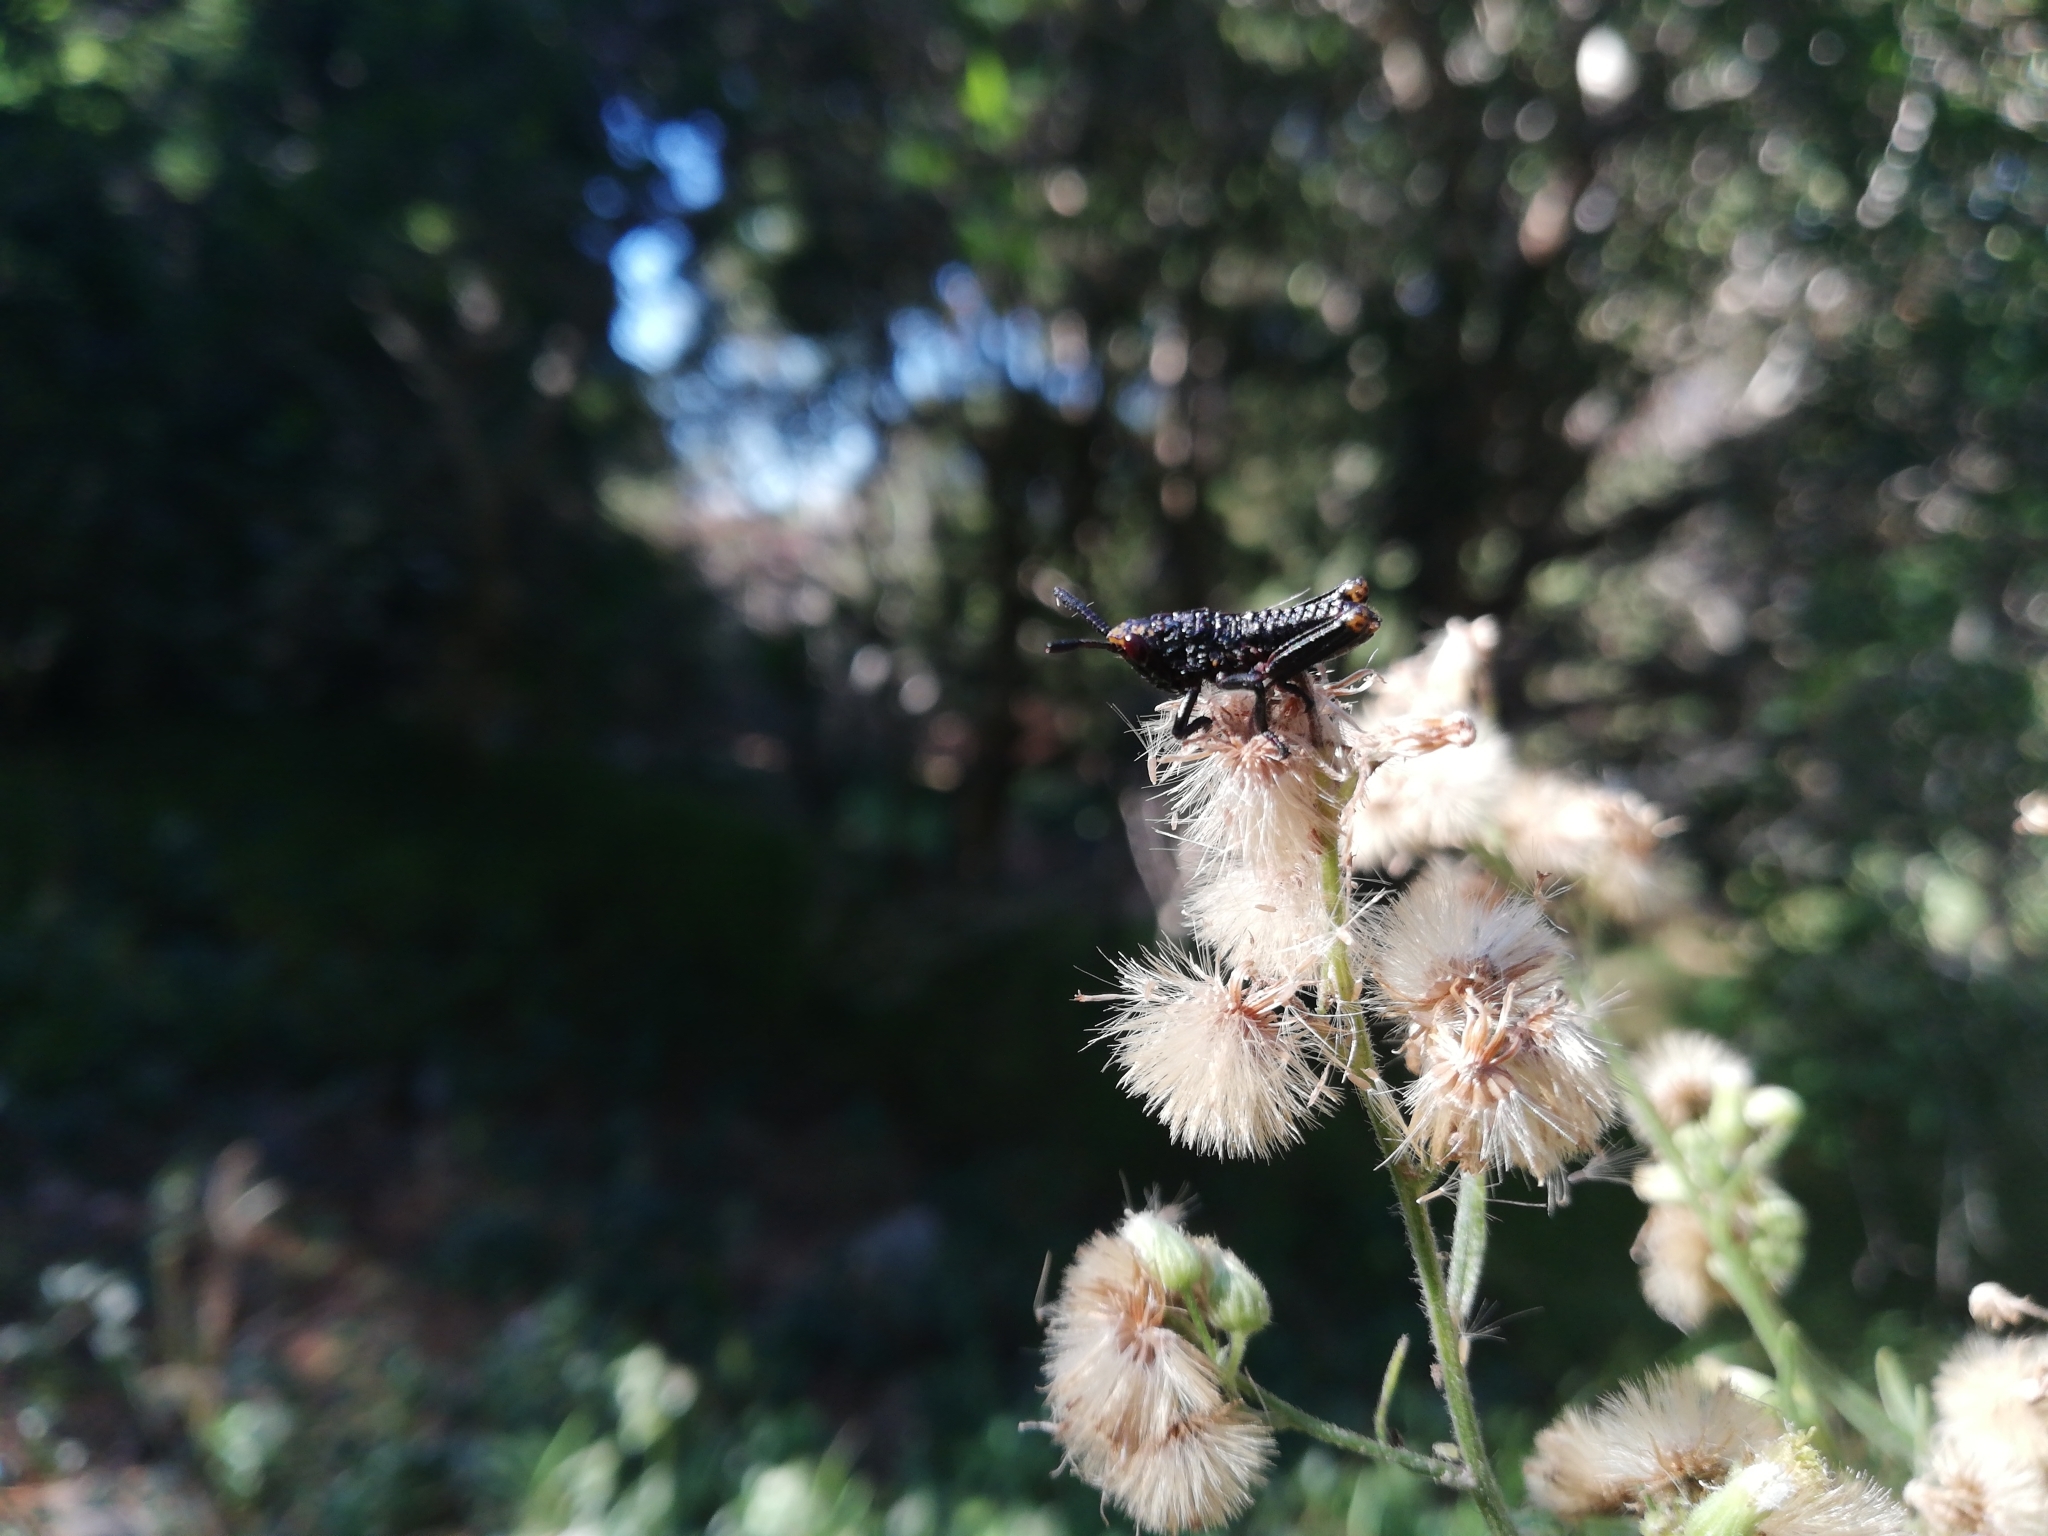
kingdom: Animalia
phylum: Arthropoda
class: Insecta
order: Orthoptera
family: Pyrgomorphidae
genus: Dictyophorus
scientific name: Dictyophorus spumans
